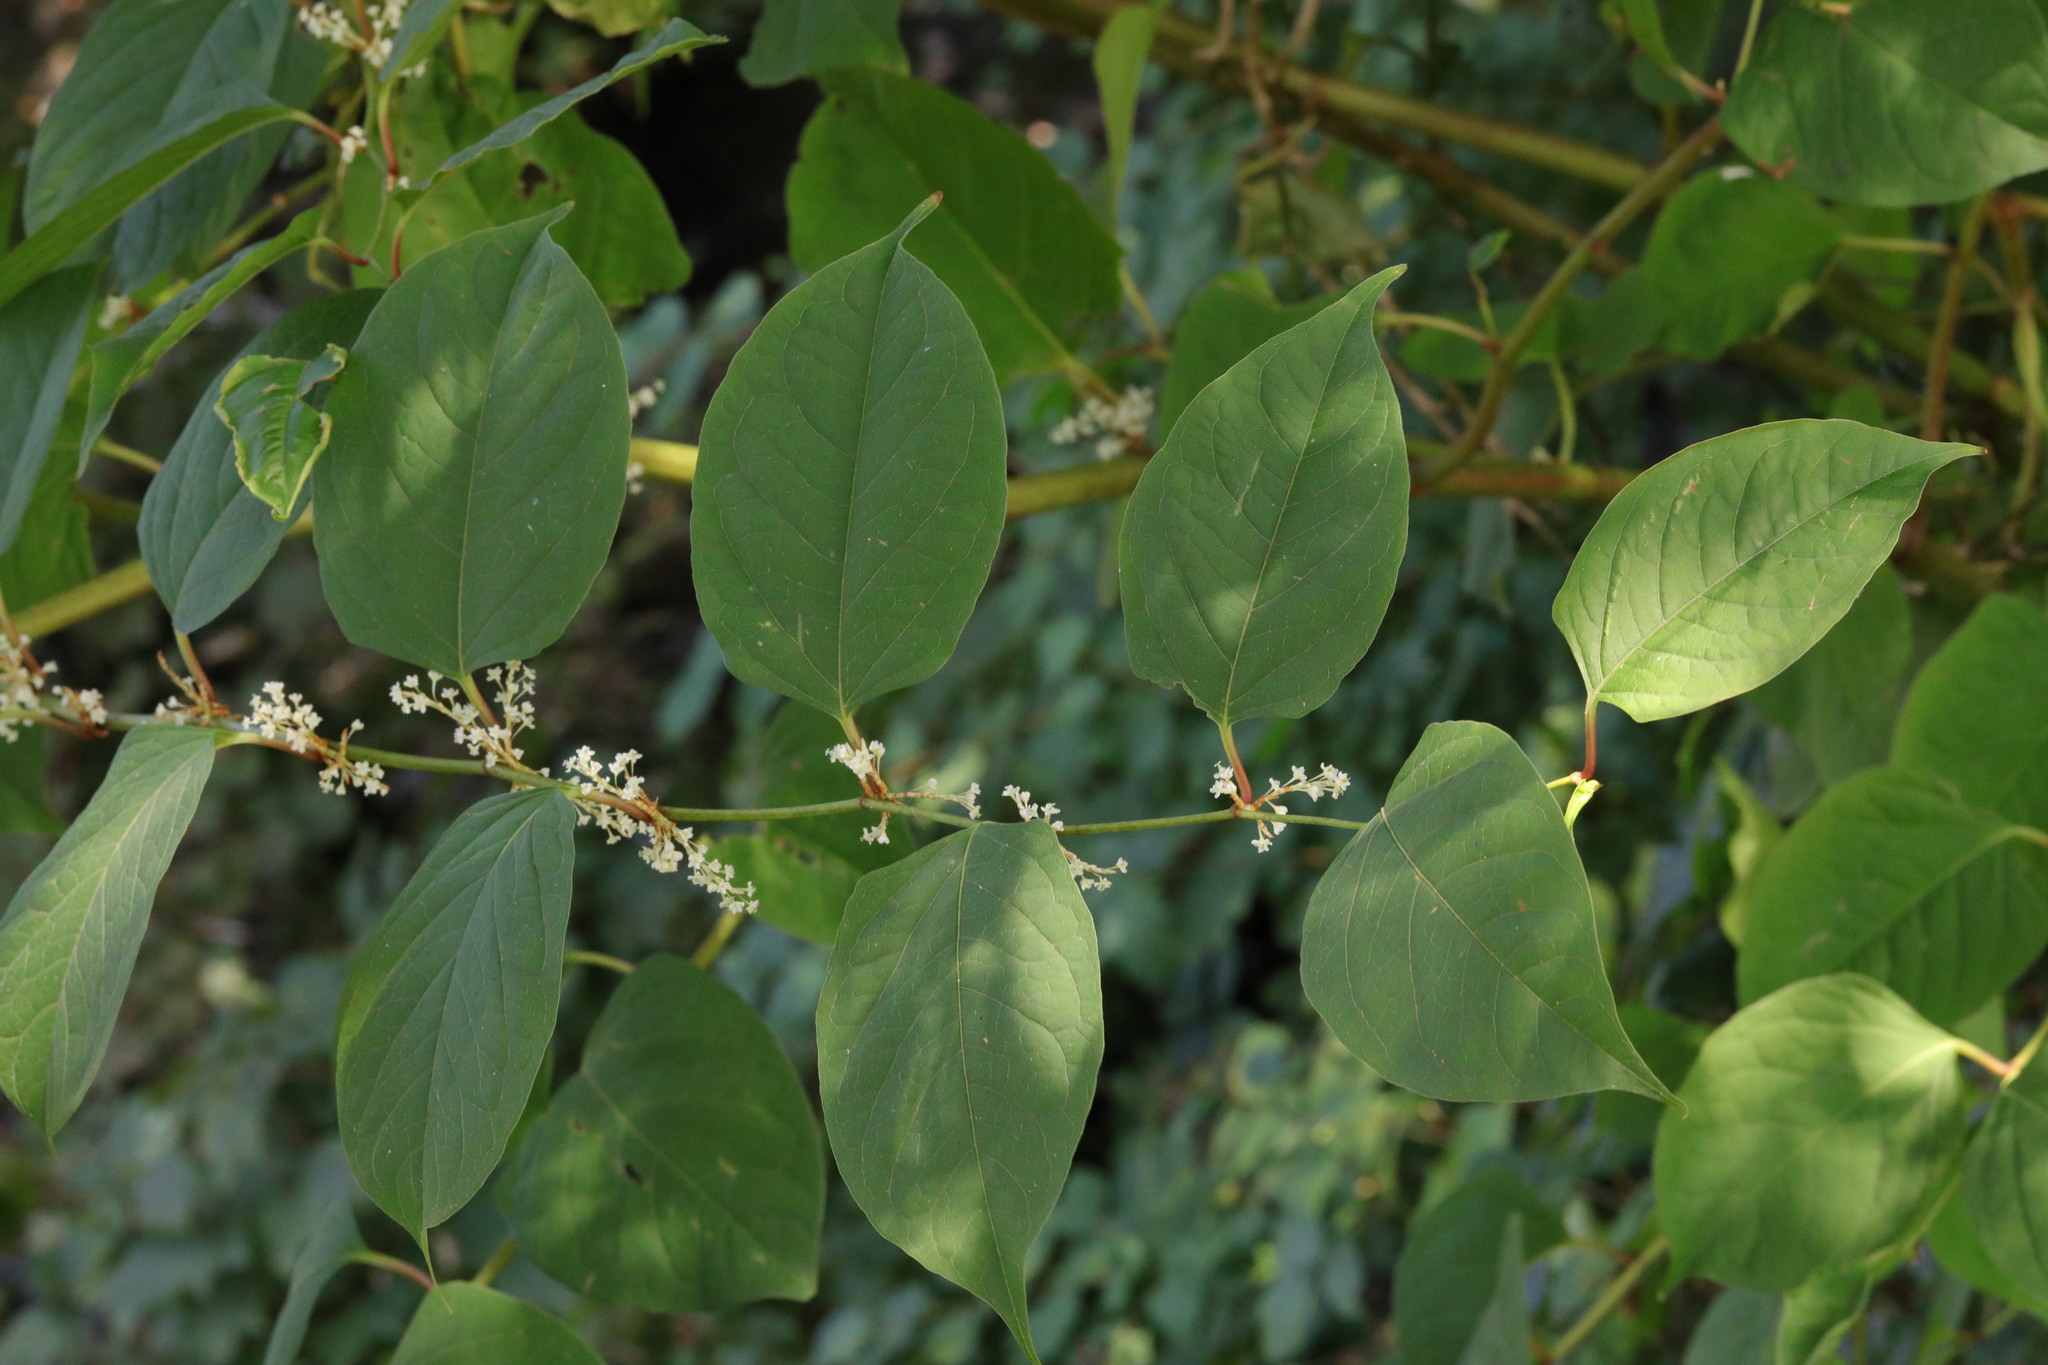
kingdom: Plantae
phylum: Tracheophyta
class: Magnoliopsida
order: Caryophyllales
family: Polygonaceae
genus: Reynoutria
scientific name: Reynoutria japonica
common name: Japanese knotweed
